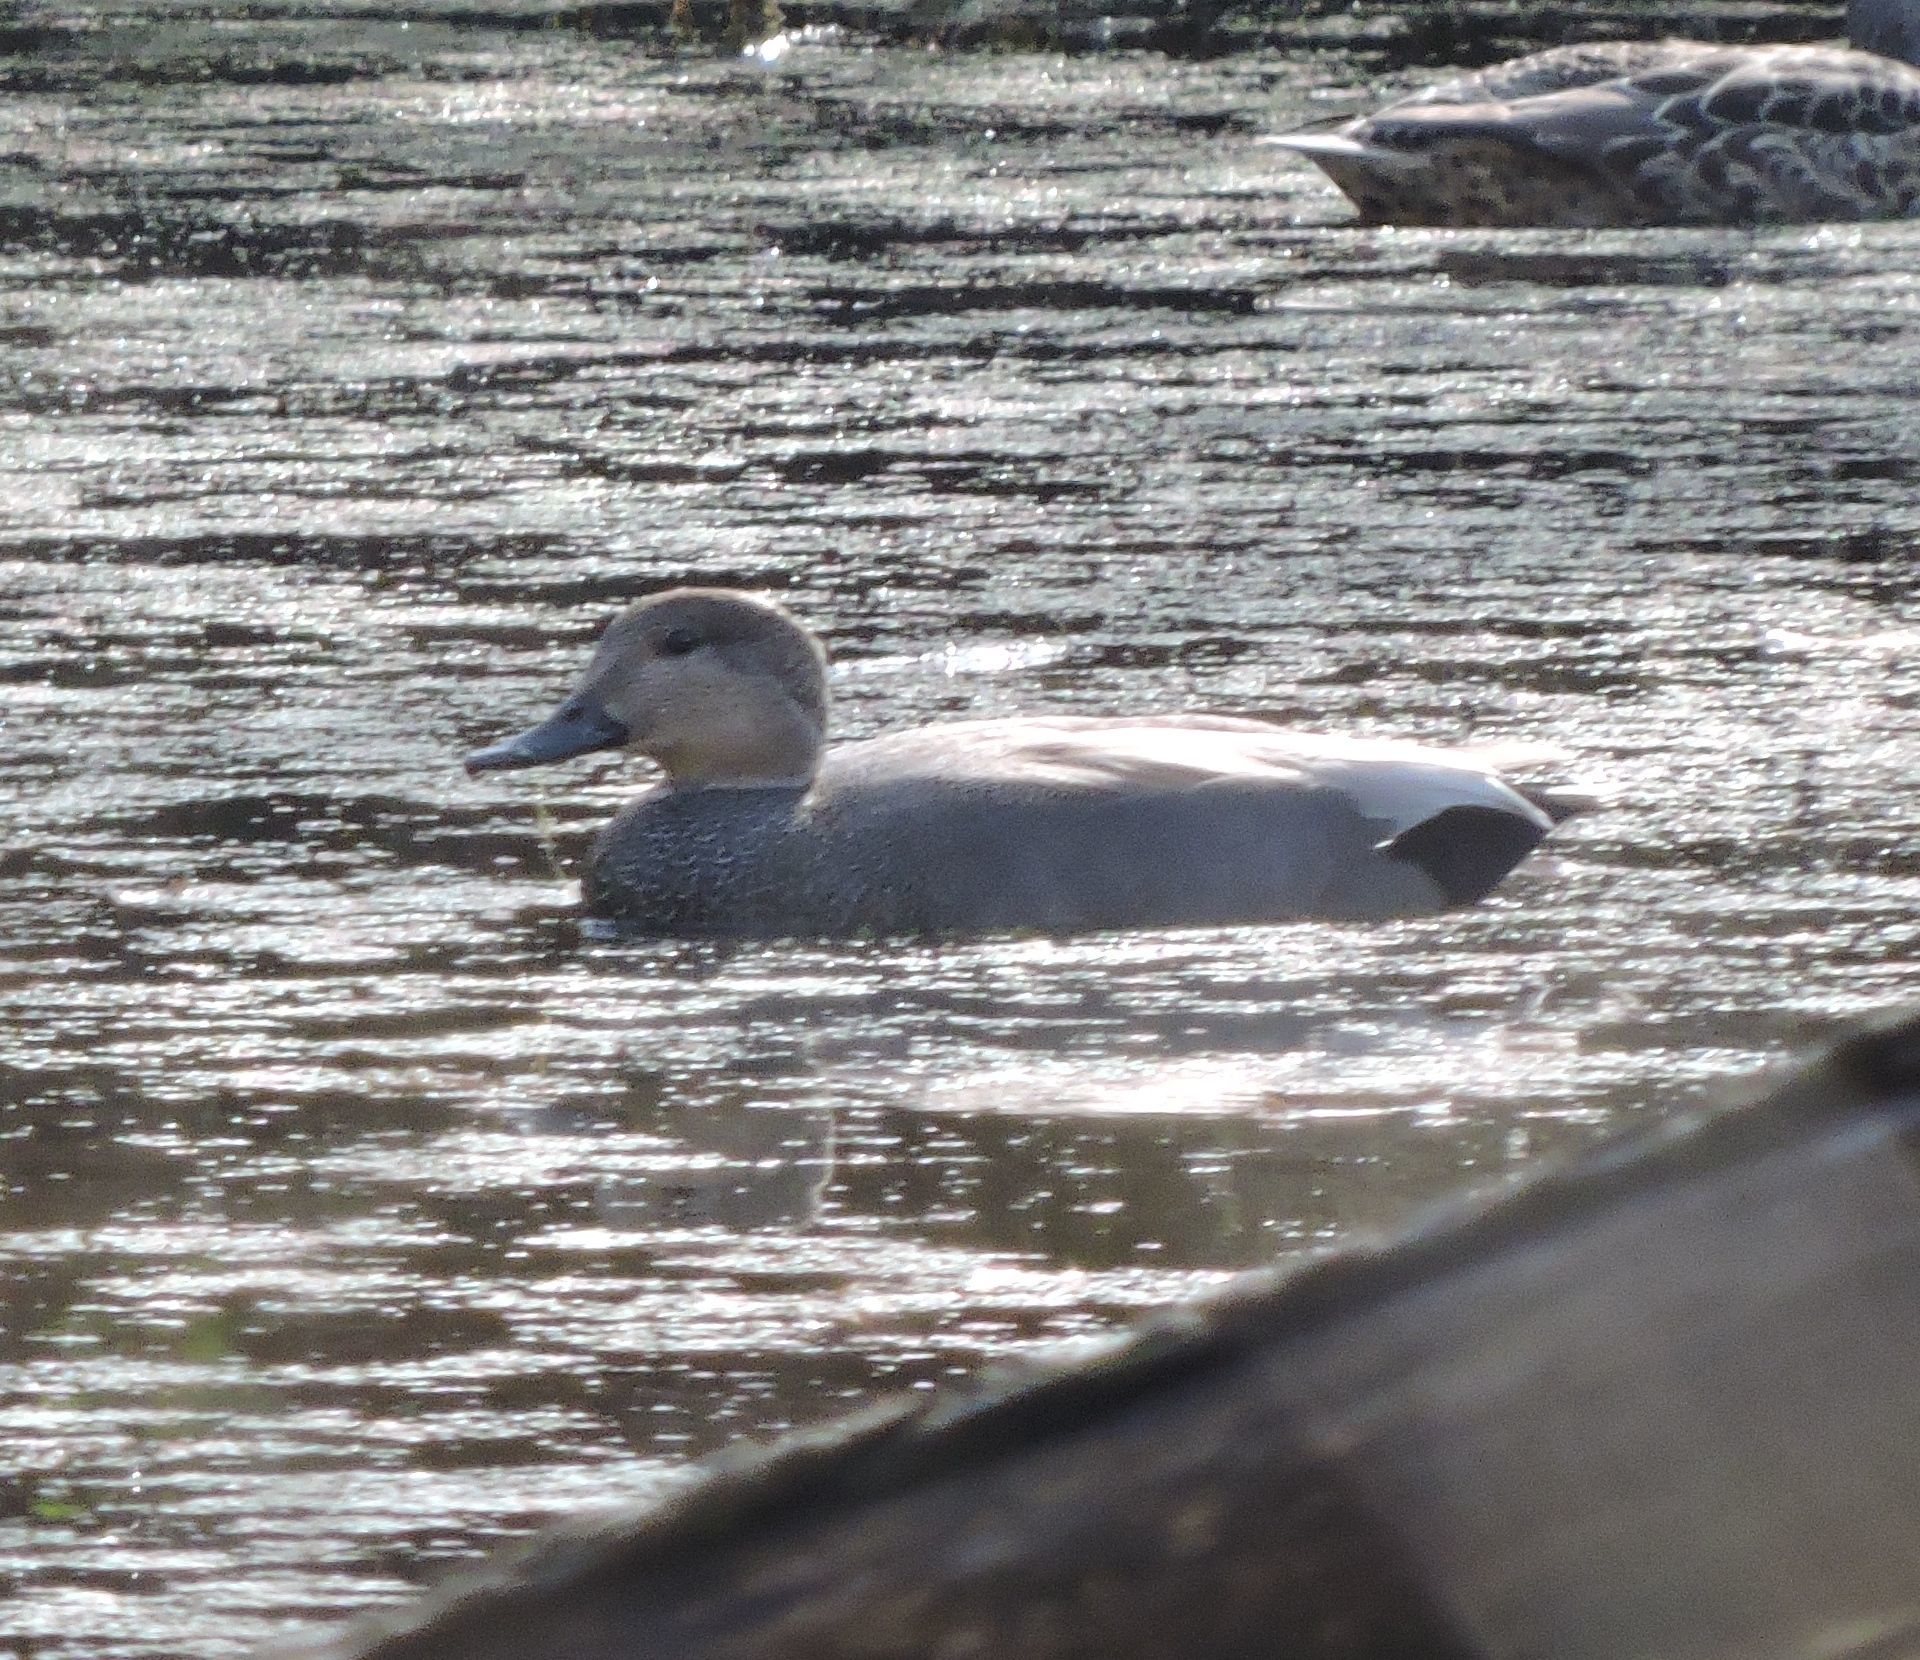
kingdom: Animalia
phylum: Chordata
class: Aves
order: Anseriformes
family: Anatidae
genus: Mareca
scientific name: Mareca strepera
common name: Gadwall
